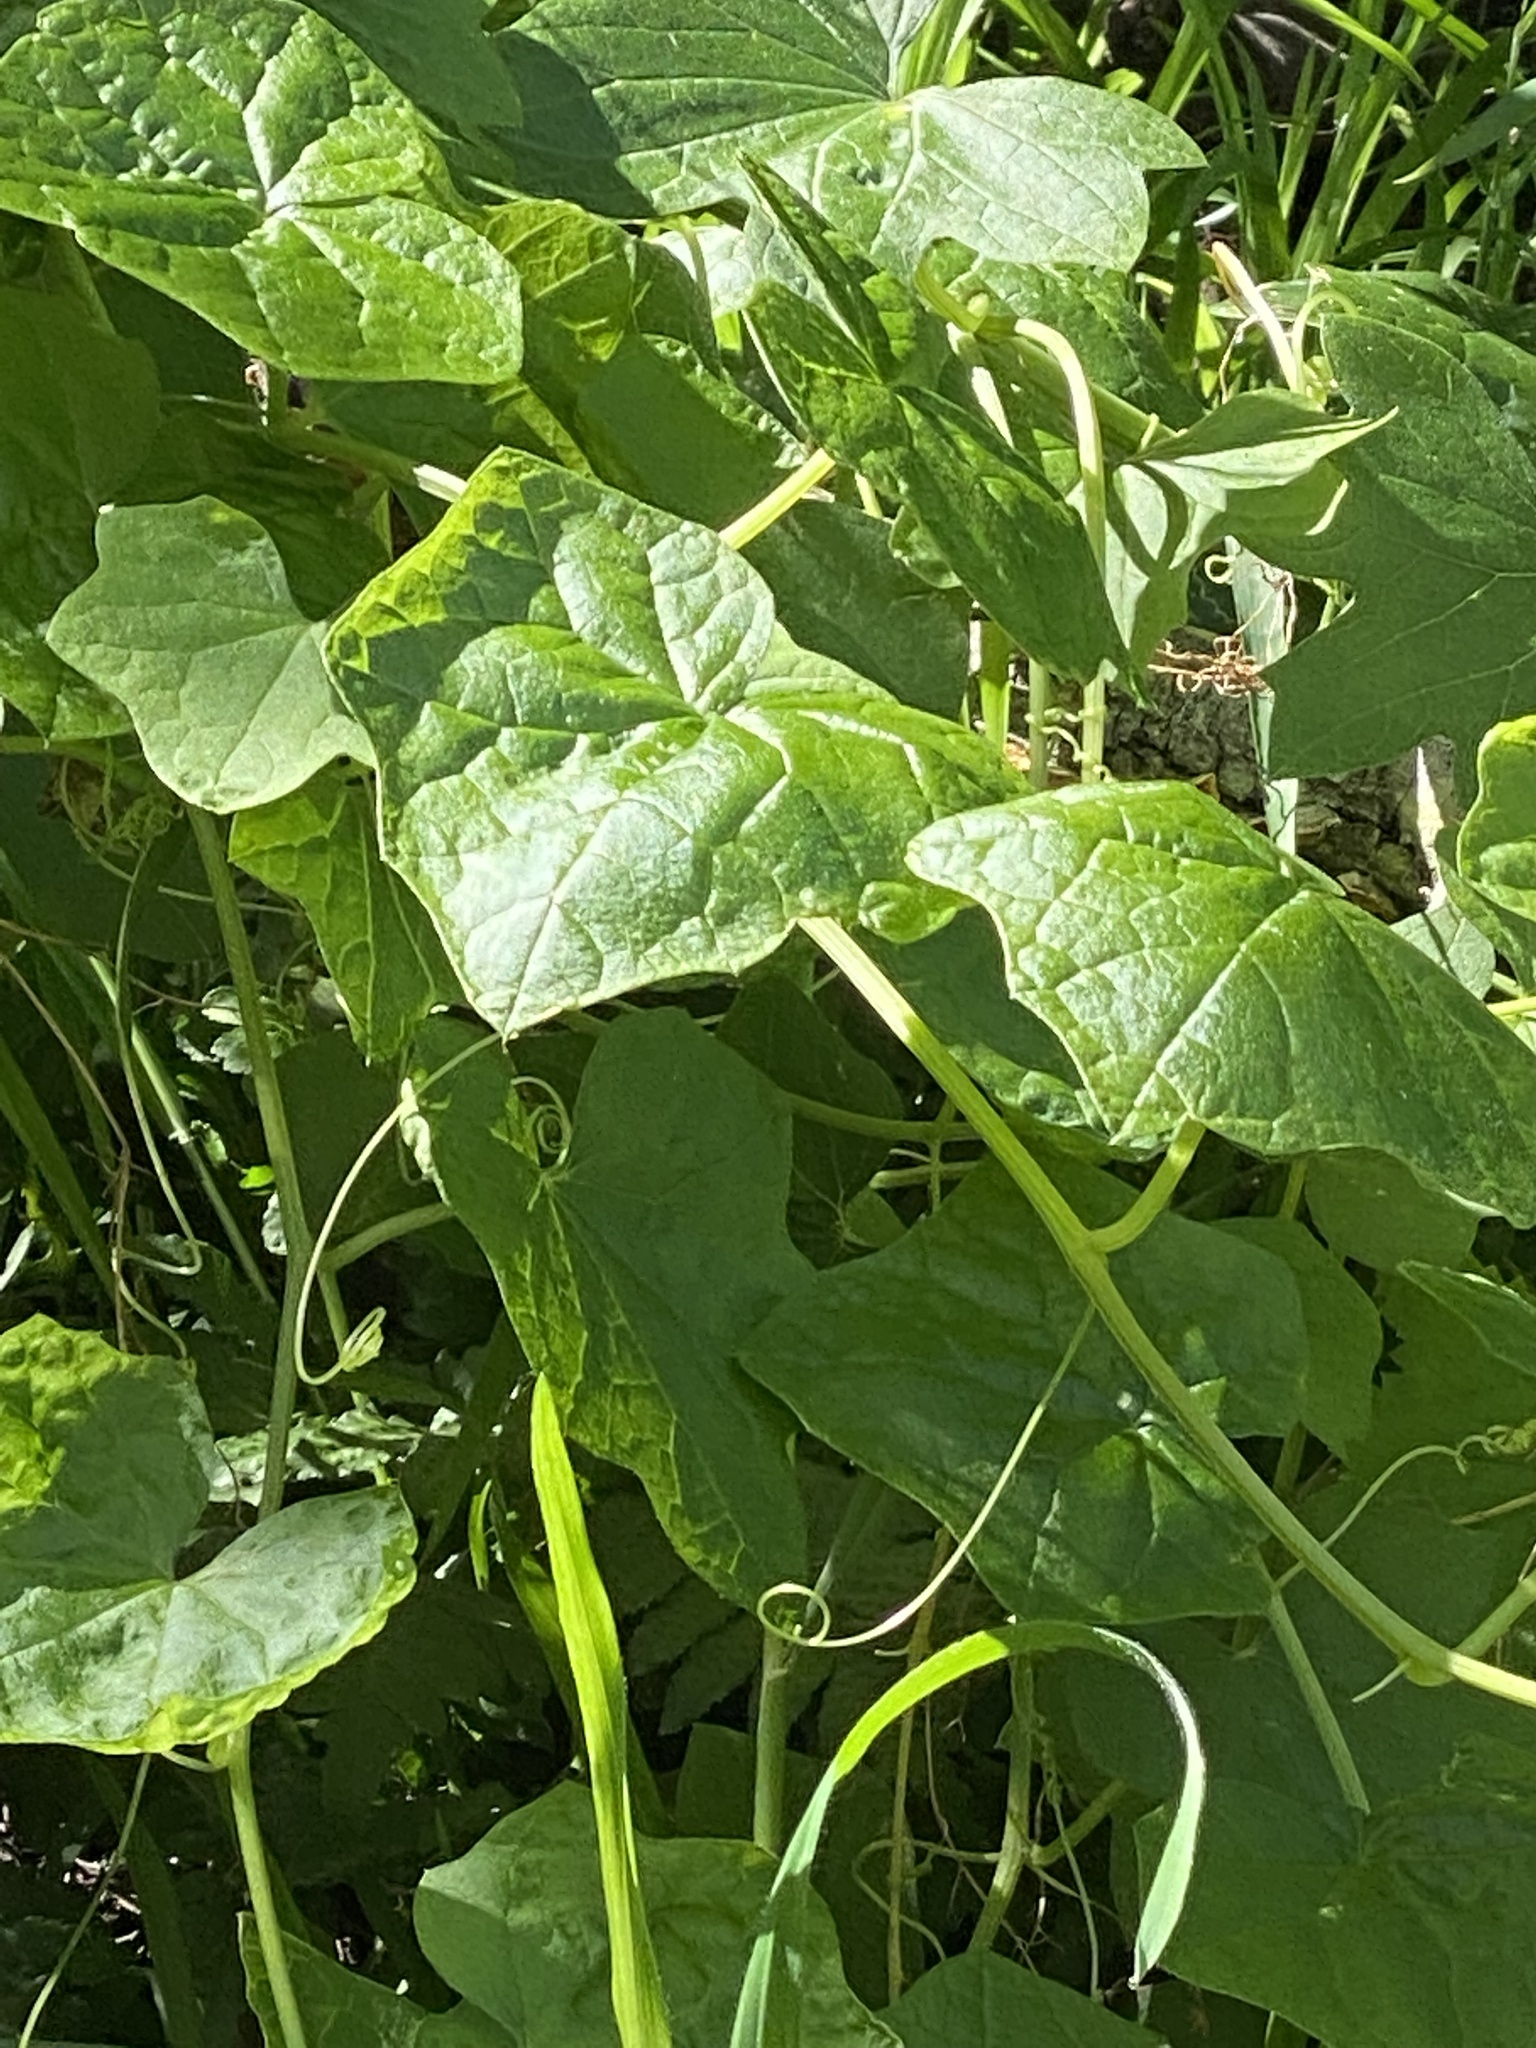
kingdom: Plantae
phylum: Tracheophyta
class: Magnoliopsida
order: Cucurbitales
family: Cucurbitaceae
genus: Marah
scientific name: Marah fabacea
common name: California manroot
